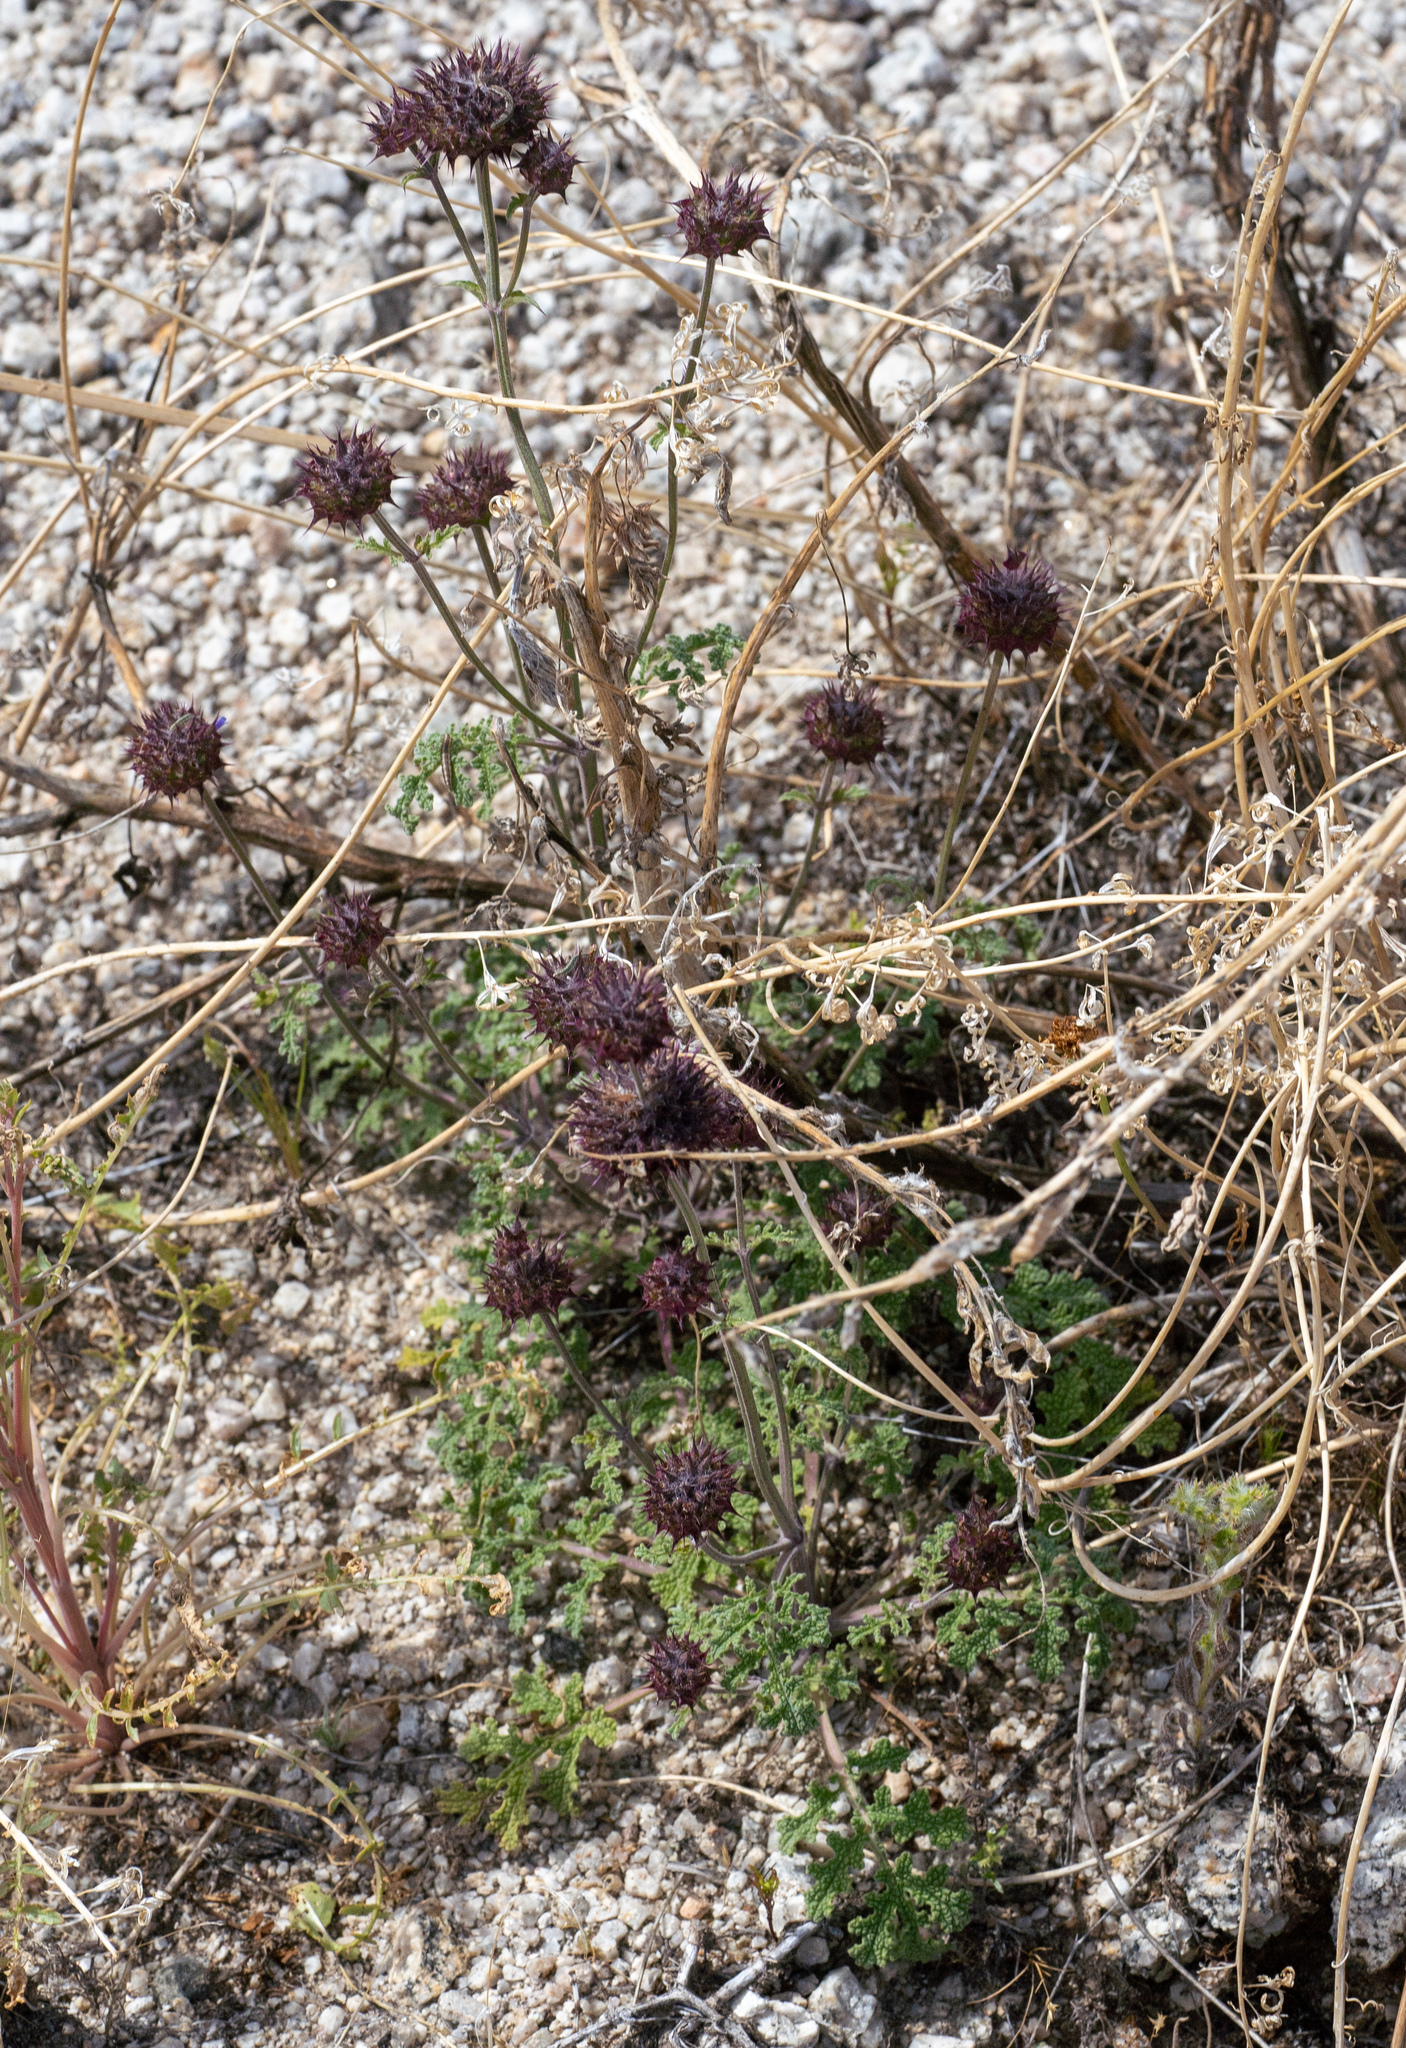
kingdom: Plantae
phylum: Tracheophyta
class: Magnoliopsida
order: Lamiales
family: Lamiaceae
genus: Salvia
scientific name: Salvia columbariae
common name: Chia
